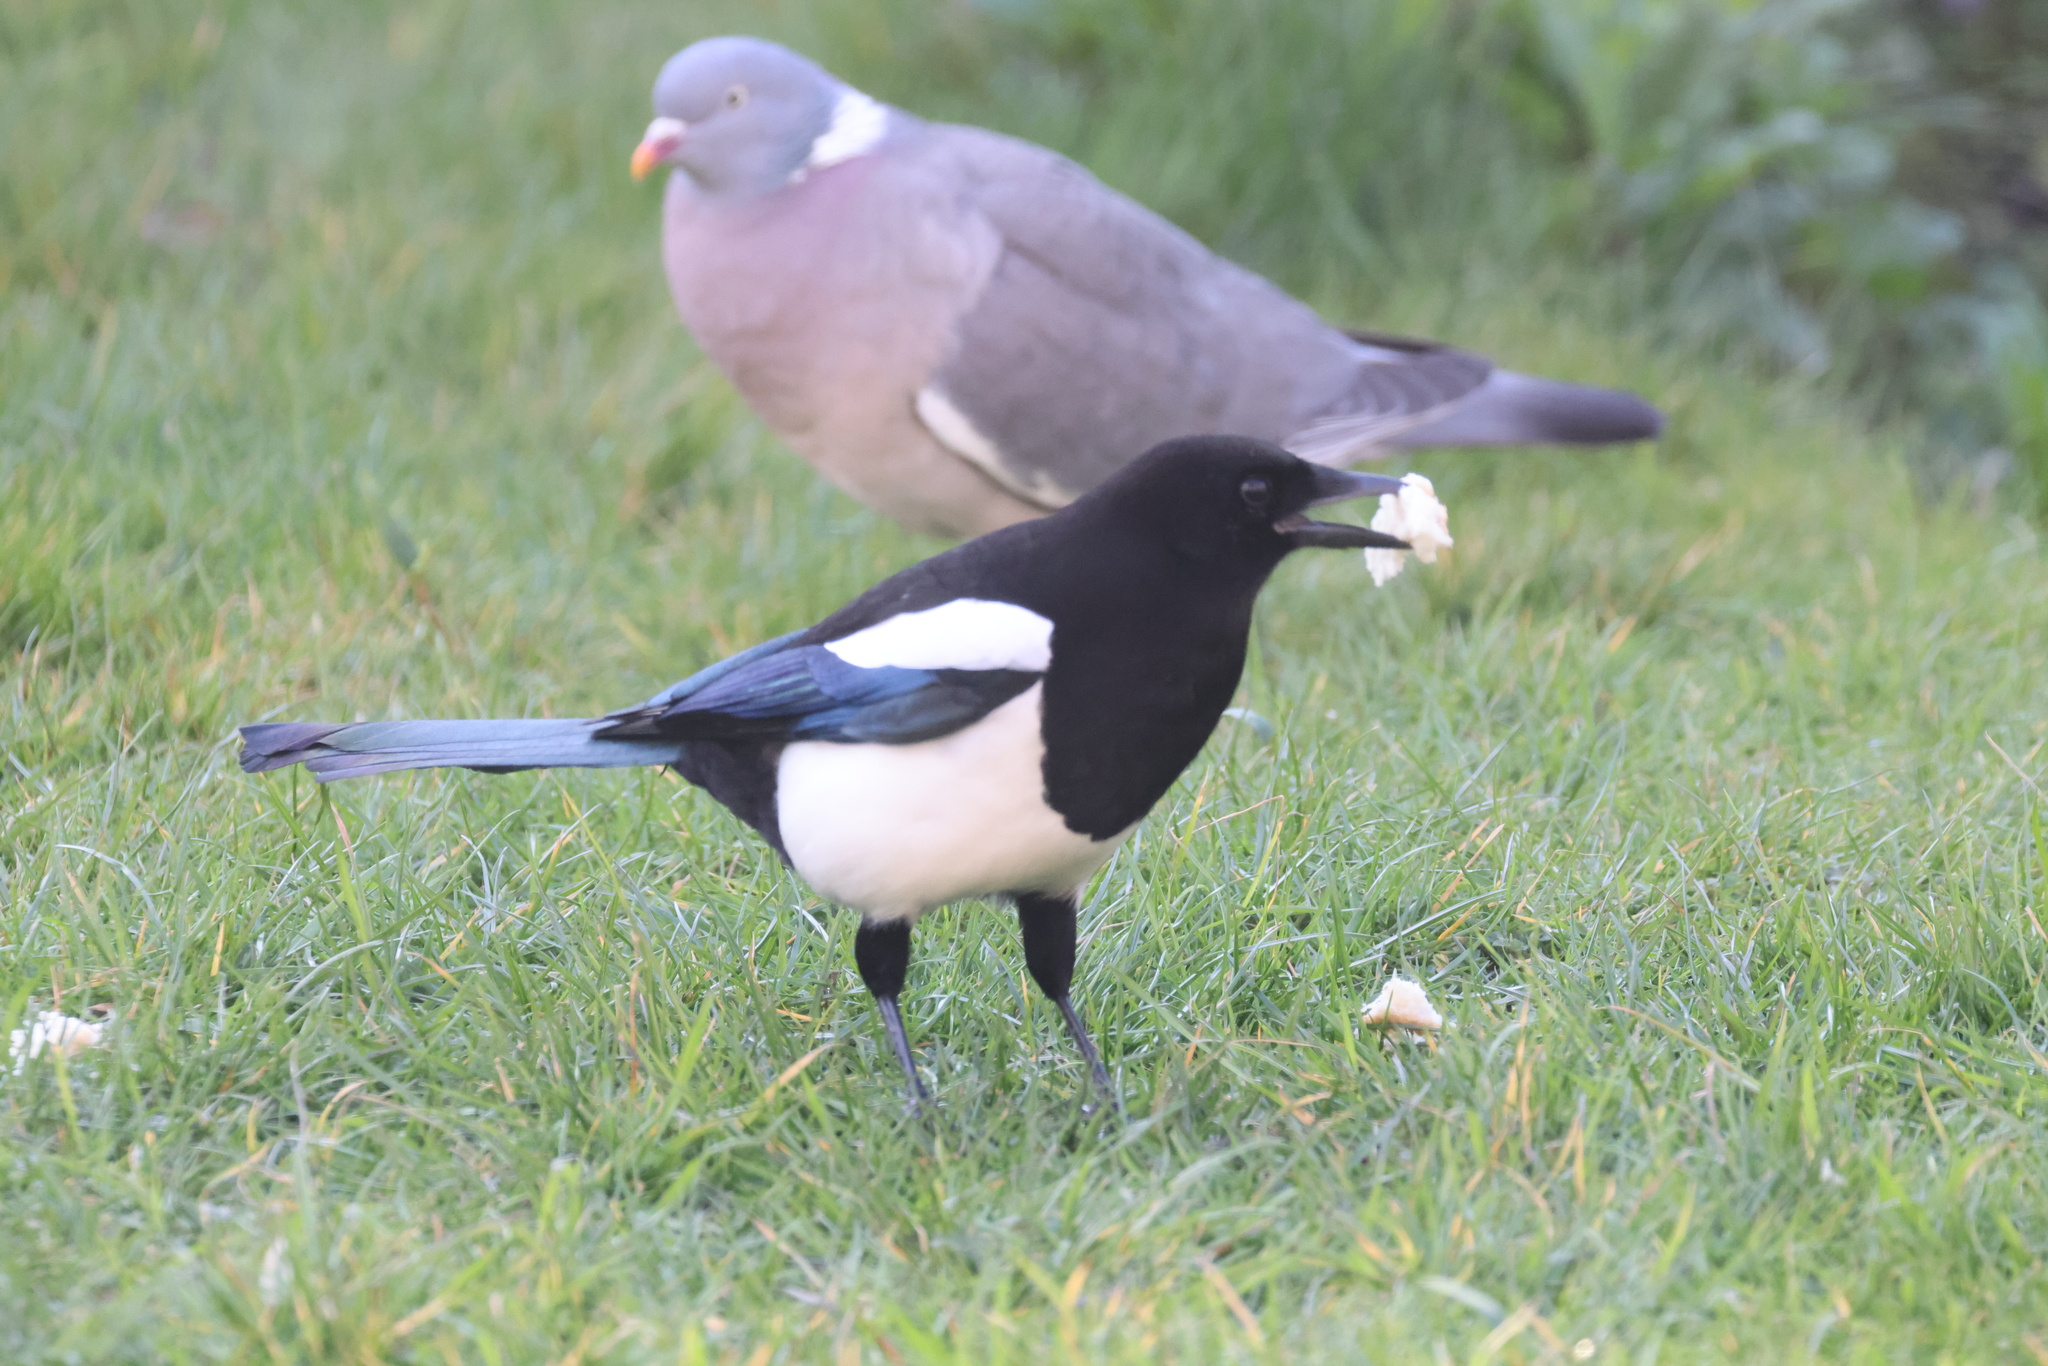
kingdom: Animalia
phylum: Chordata
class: Aves
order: Passeriformes
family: Corvidae
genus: Pica
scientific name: Pica pica
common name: Eurasian magpie
